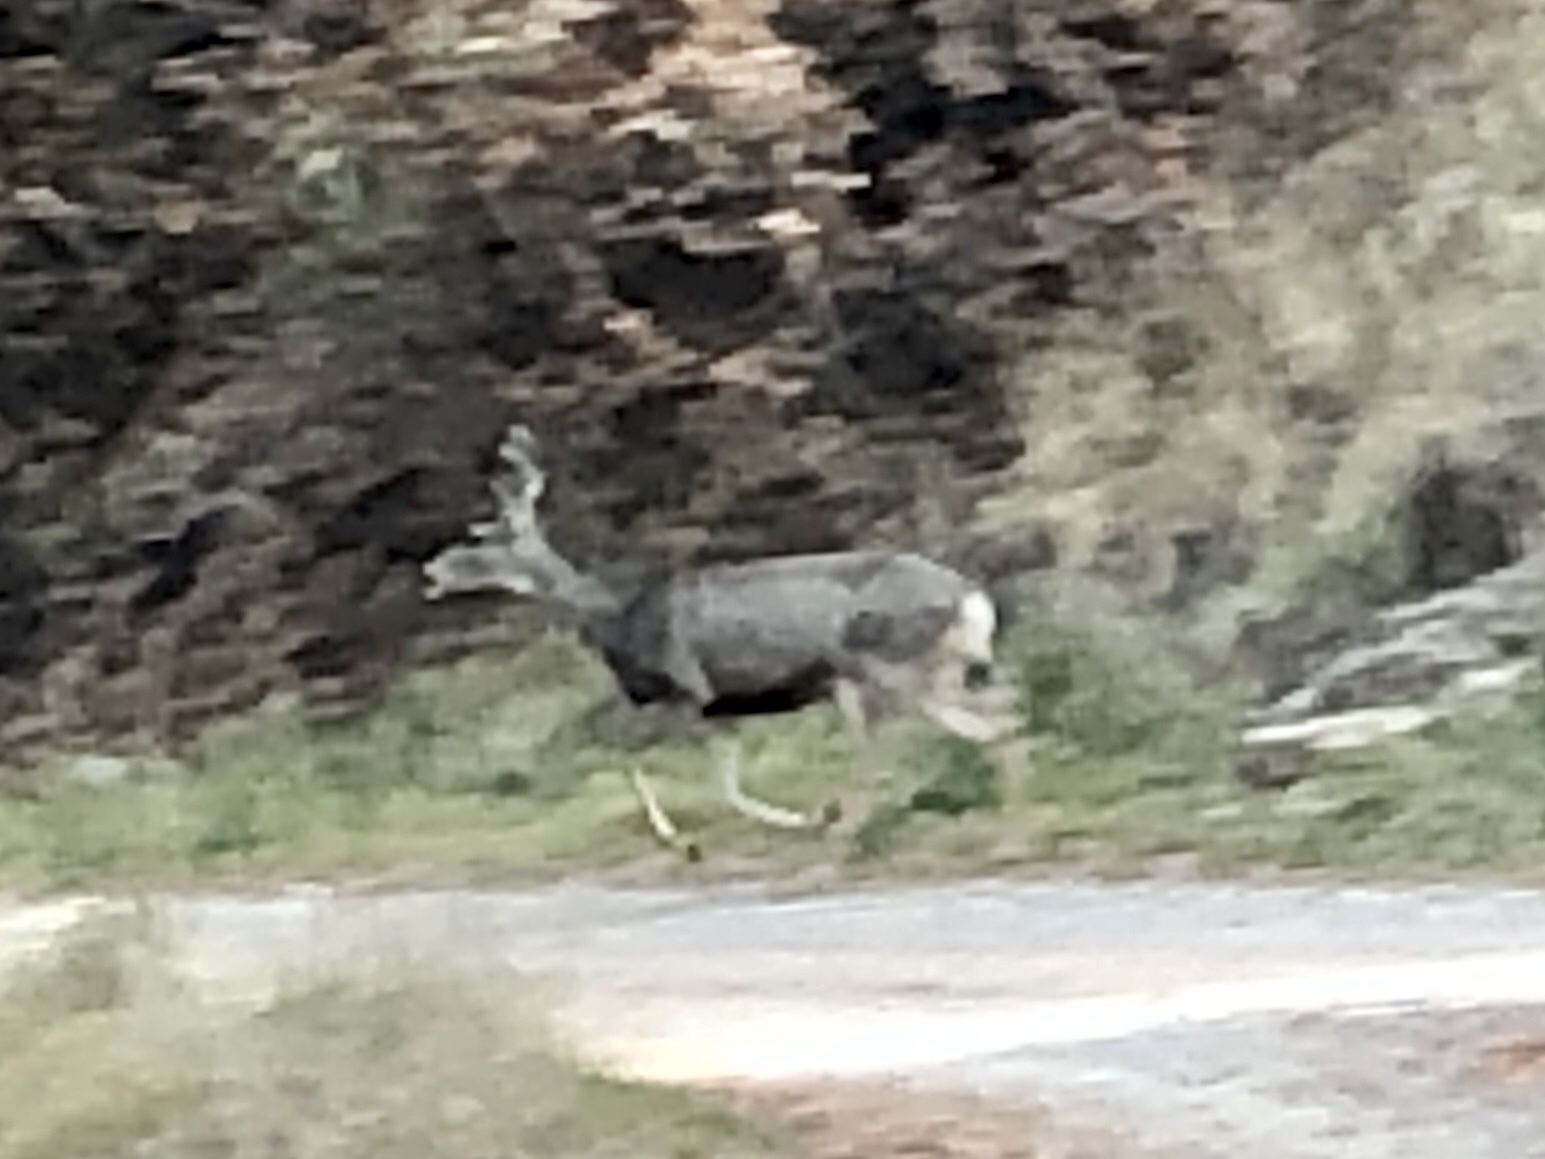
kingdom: Animalia
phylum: Chordata
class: Mammalia
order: Artiodactyla
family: Cervidae
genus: Odocoileus
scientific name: Odocoileus hemionus
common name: Mule deer
